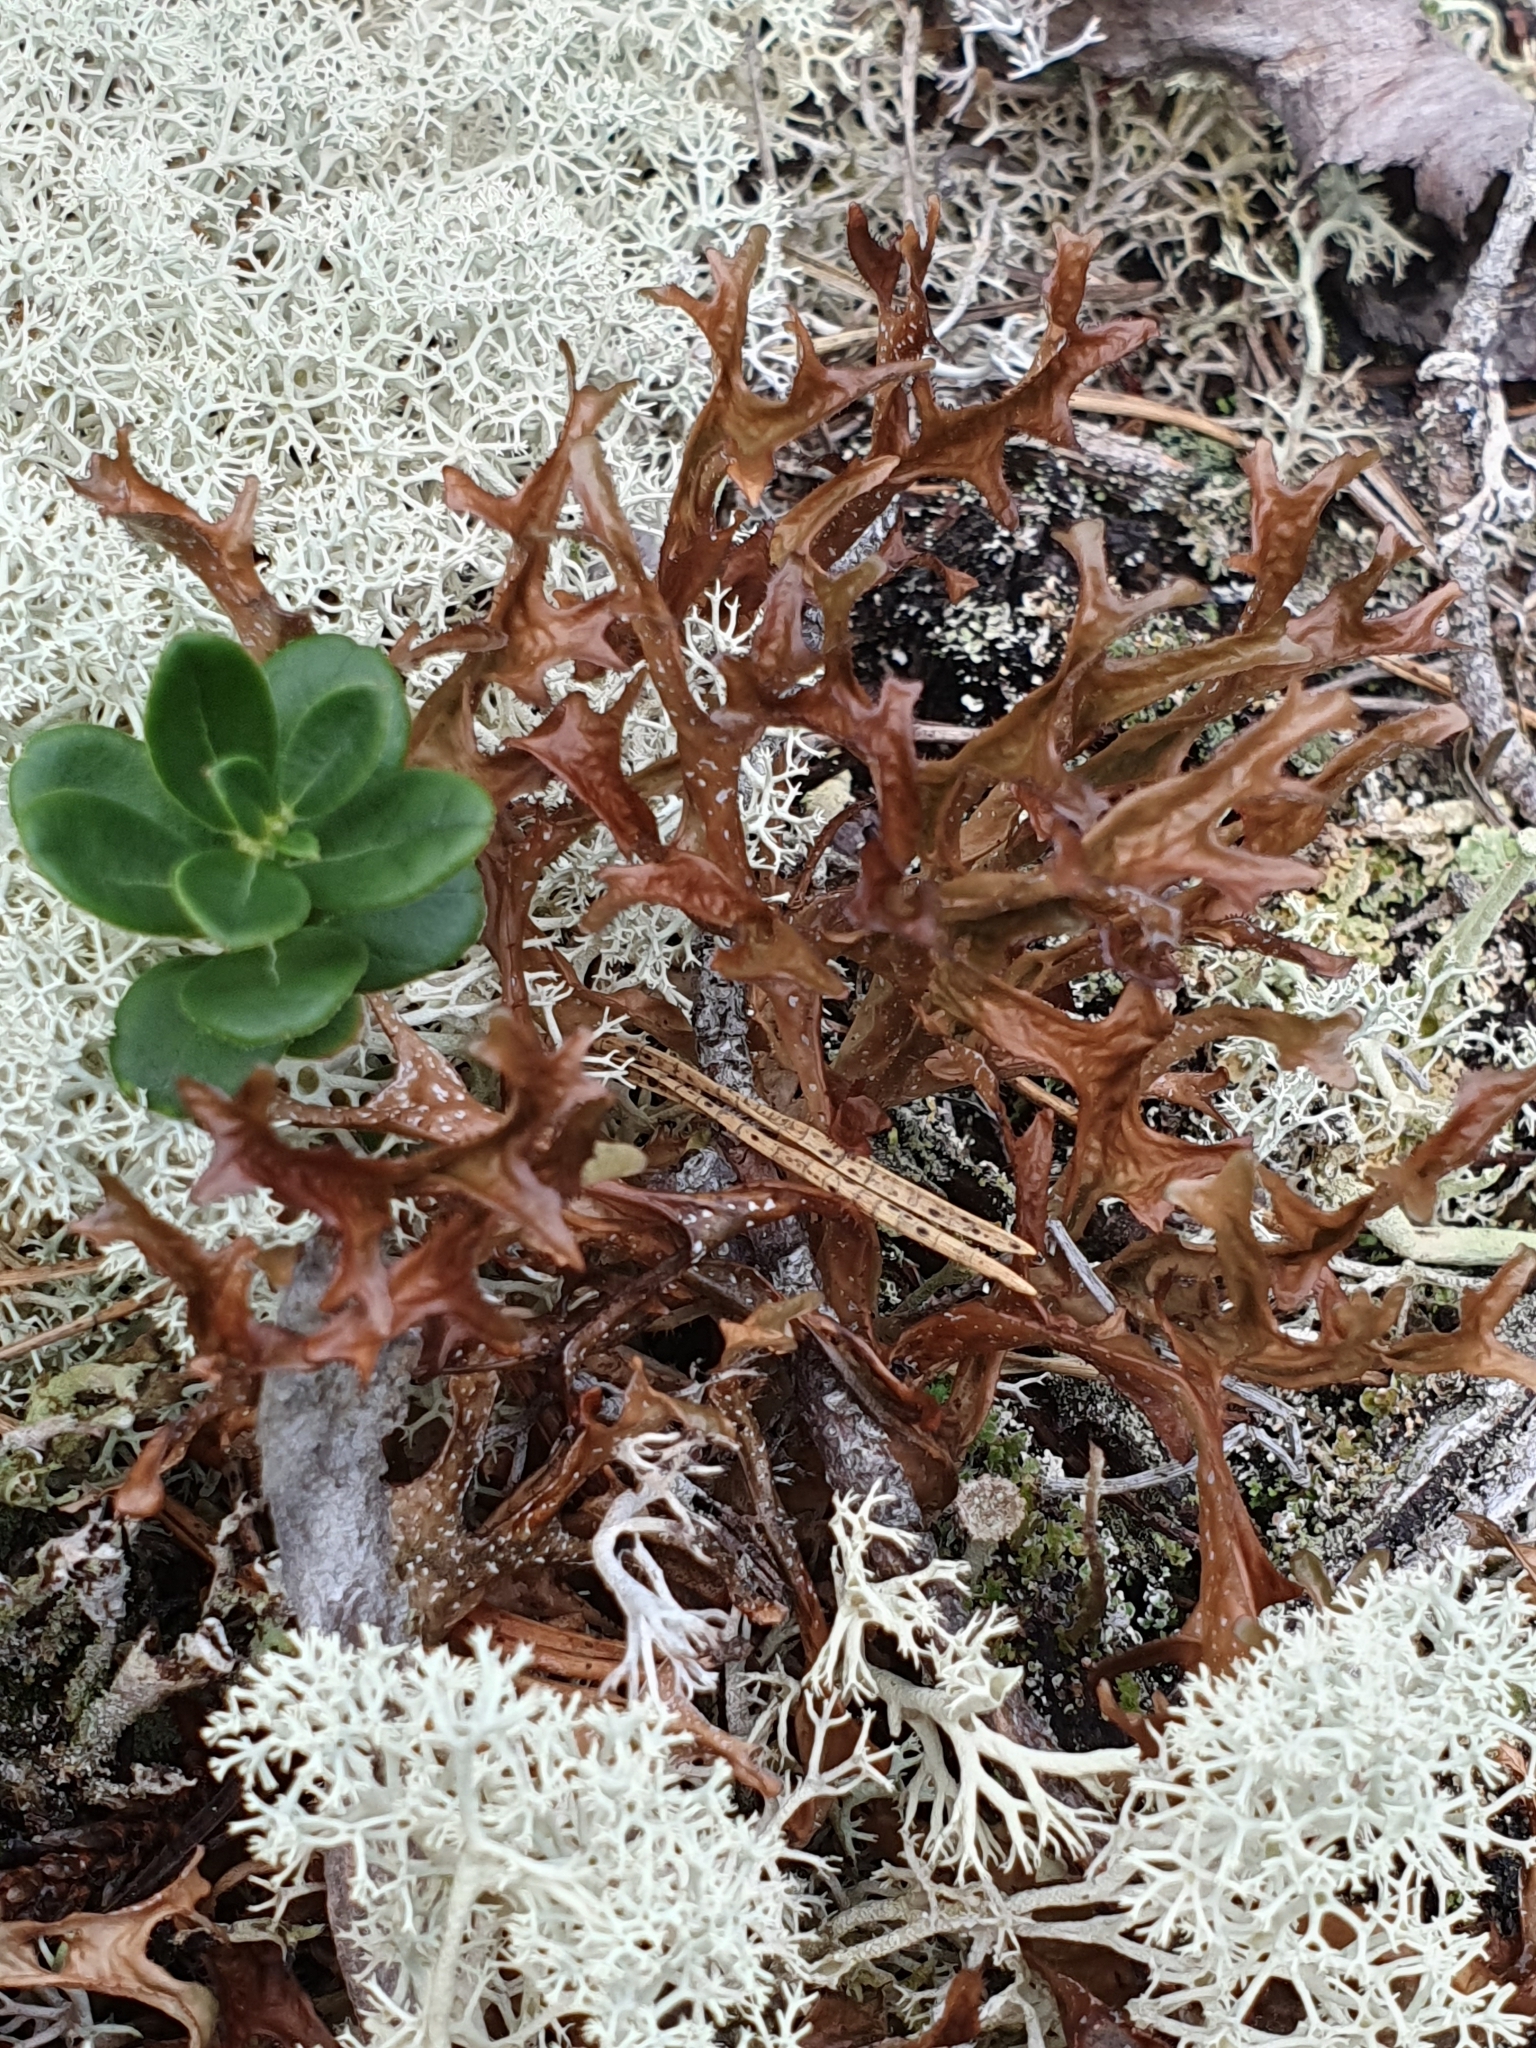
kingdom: Fungi
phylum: Ascomycota
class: Lecanoromycetes
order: Lecanorales
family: Parmeliaceae
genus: Cetraria
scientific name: Cetraria islandica
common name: Iceland lichen
